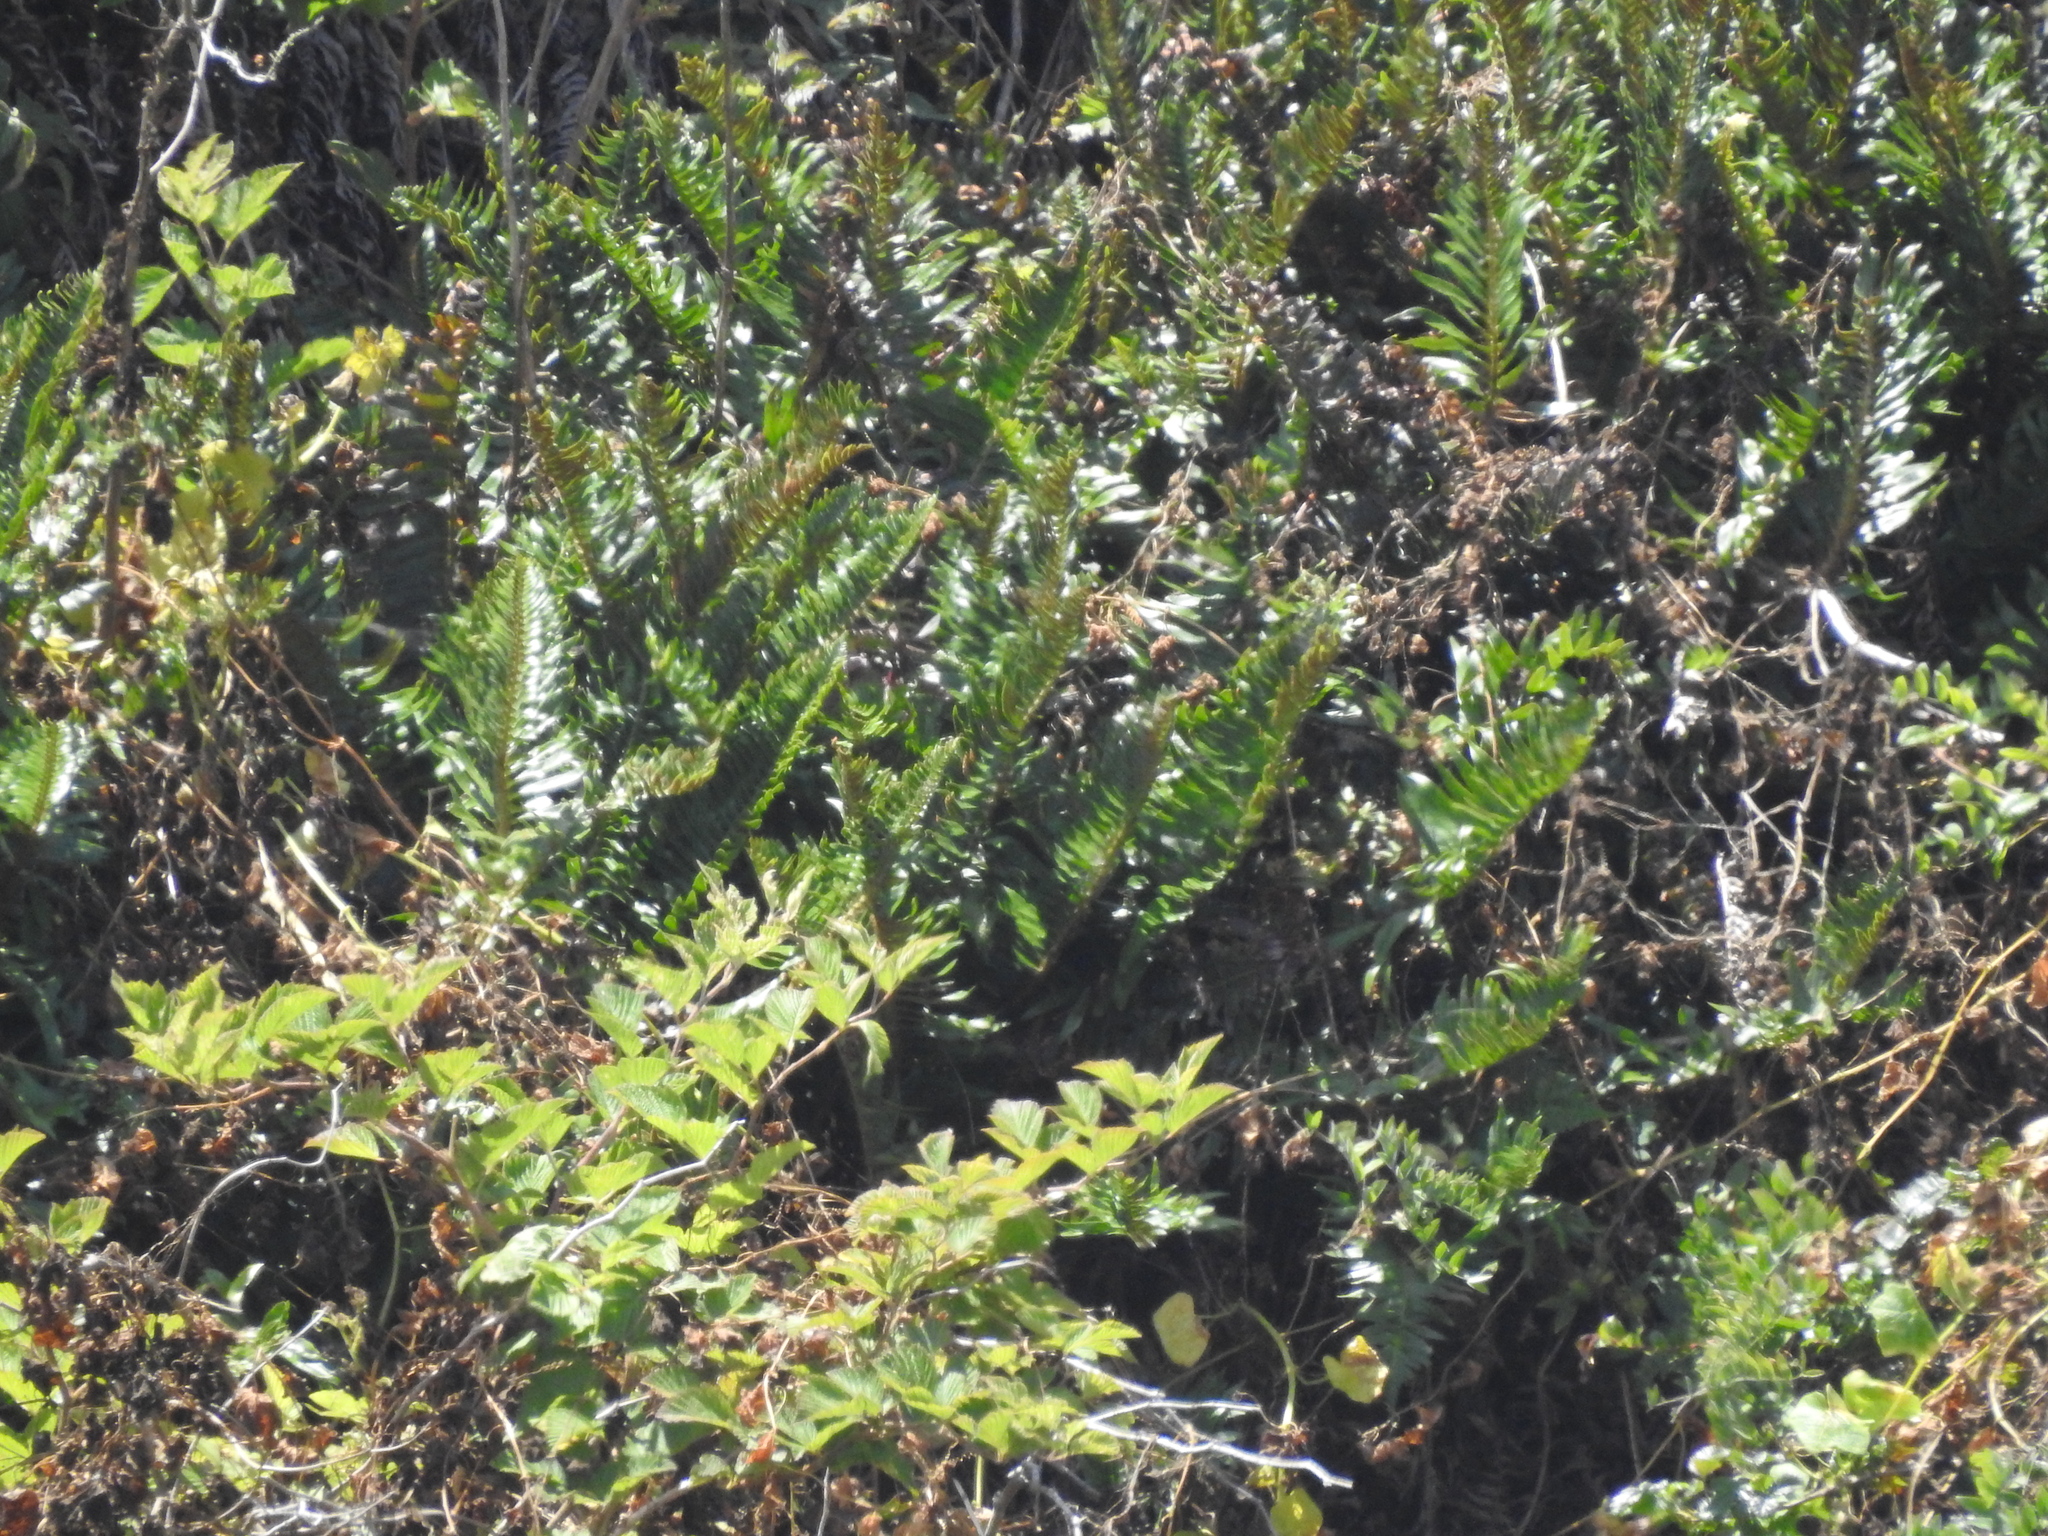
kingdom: Plantae
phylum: Tracheophyta
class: Polypodiopsida
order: Polypodiales
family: Dryopteridaceae
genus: Polystichum
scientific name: Polystichum munitum
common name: Western sword-fern
